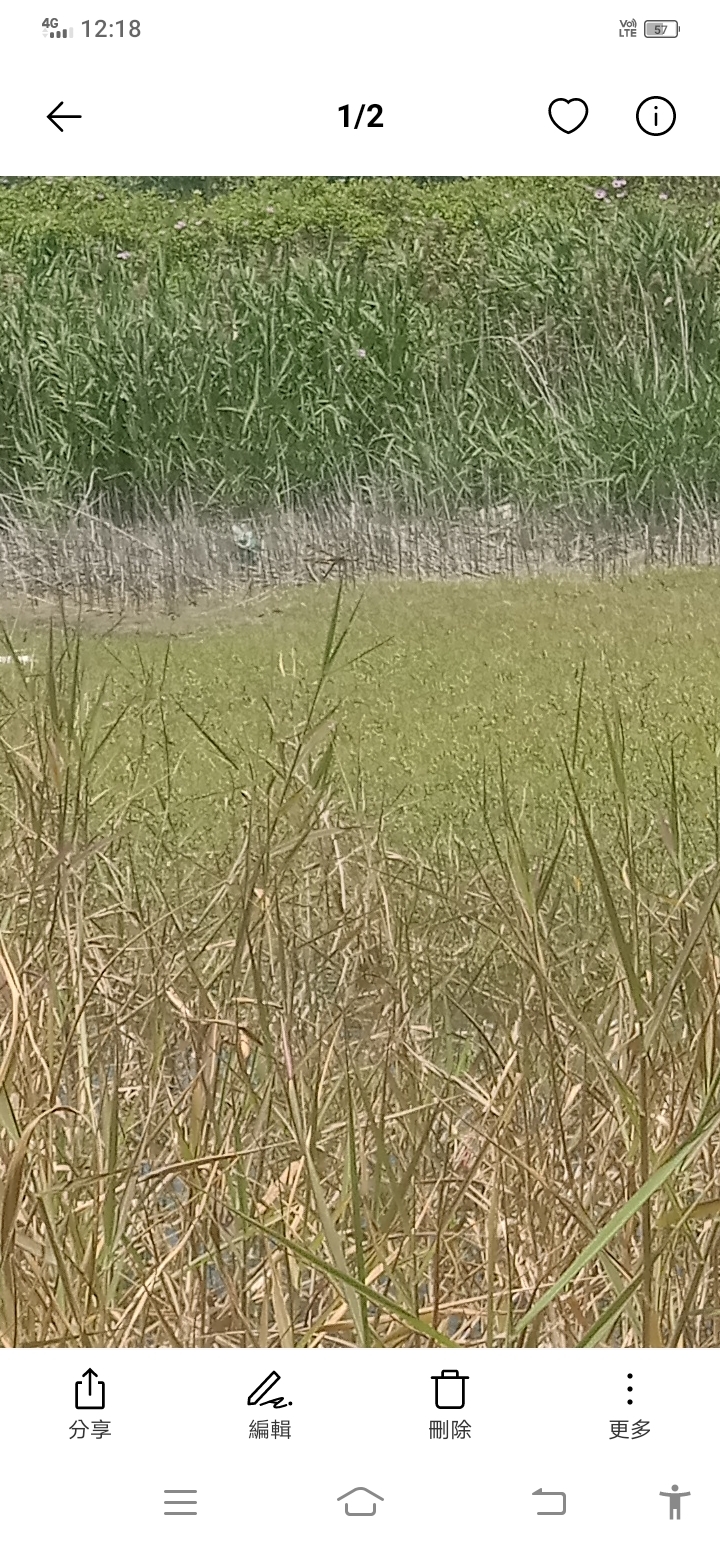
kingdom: Animalia
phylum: Arthropoda
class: Insecta
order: Odonata
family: Libellulidae
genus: Tramea
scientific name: Tramea transmarina
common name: Red glider dragonfly
